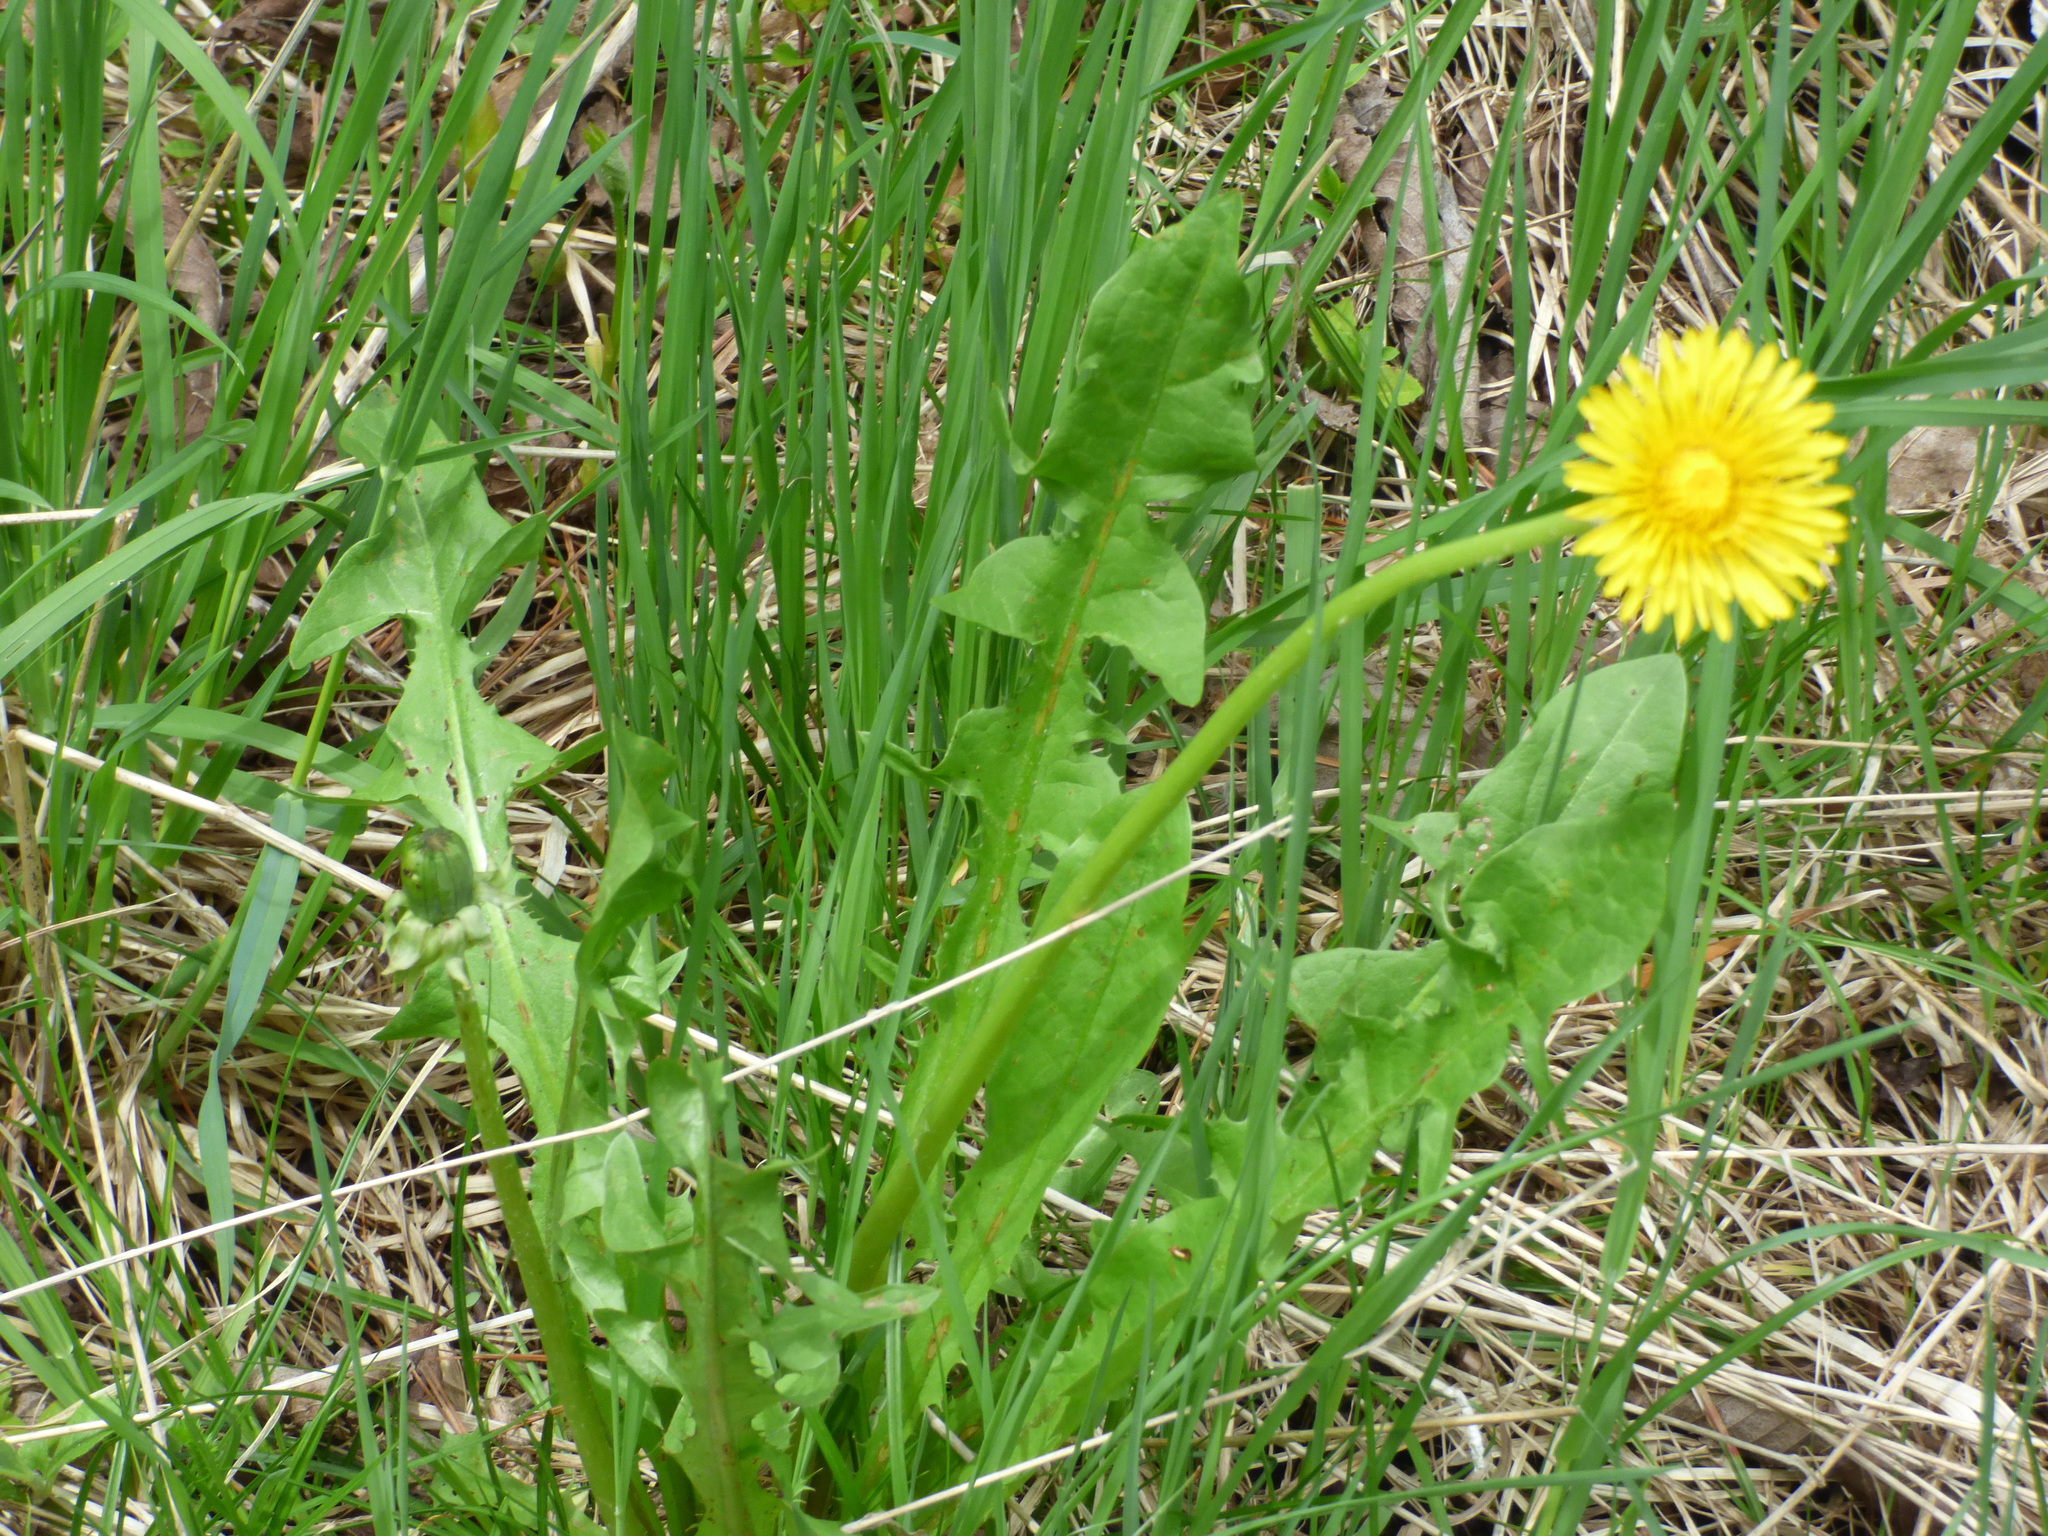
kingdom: Plantae
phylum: Tracheophyta
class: Magnoliopsida
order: Asterales
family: Asteraceae
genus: Taraxacum
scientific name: Taraxacum
